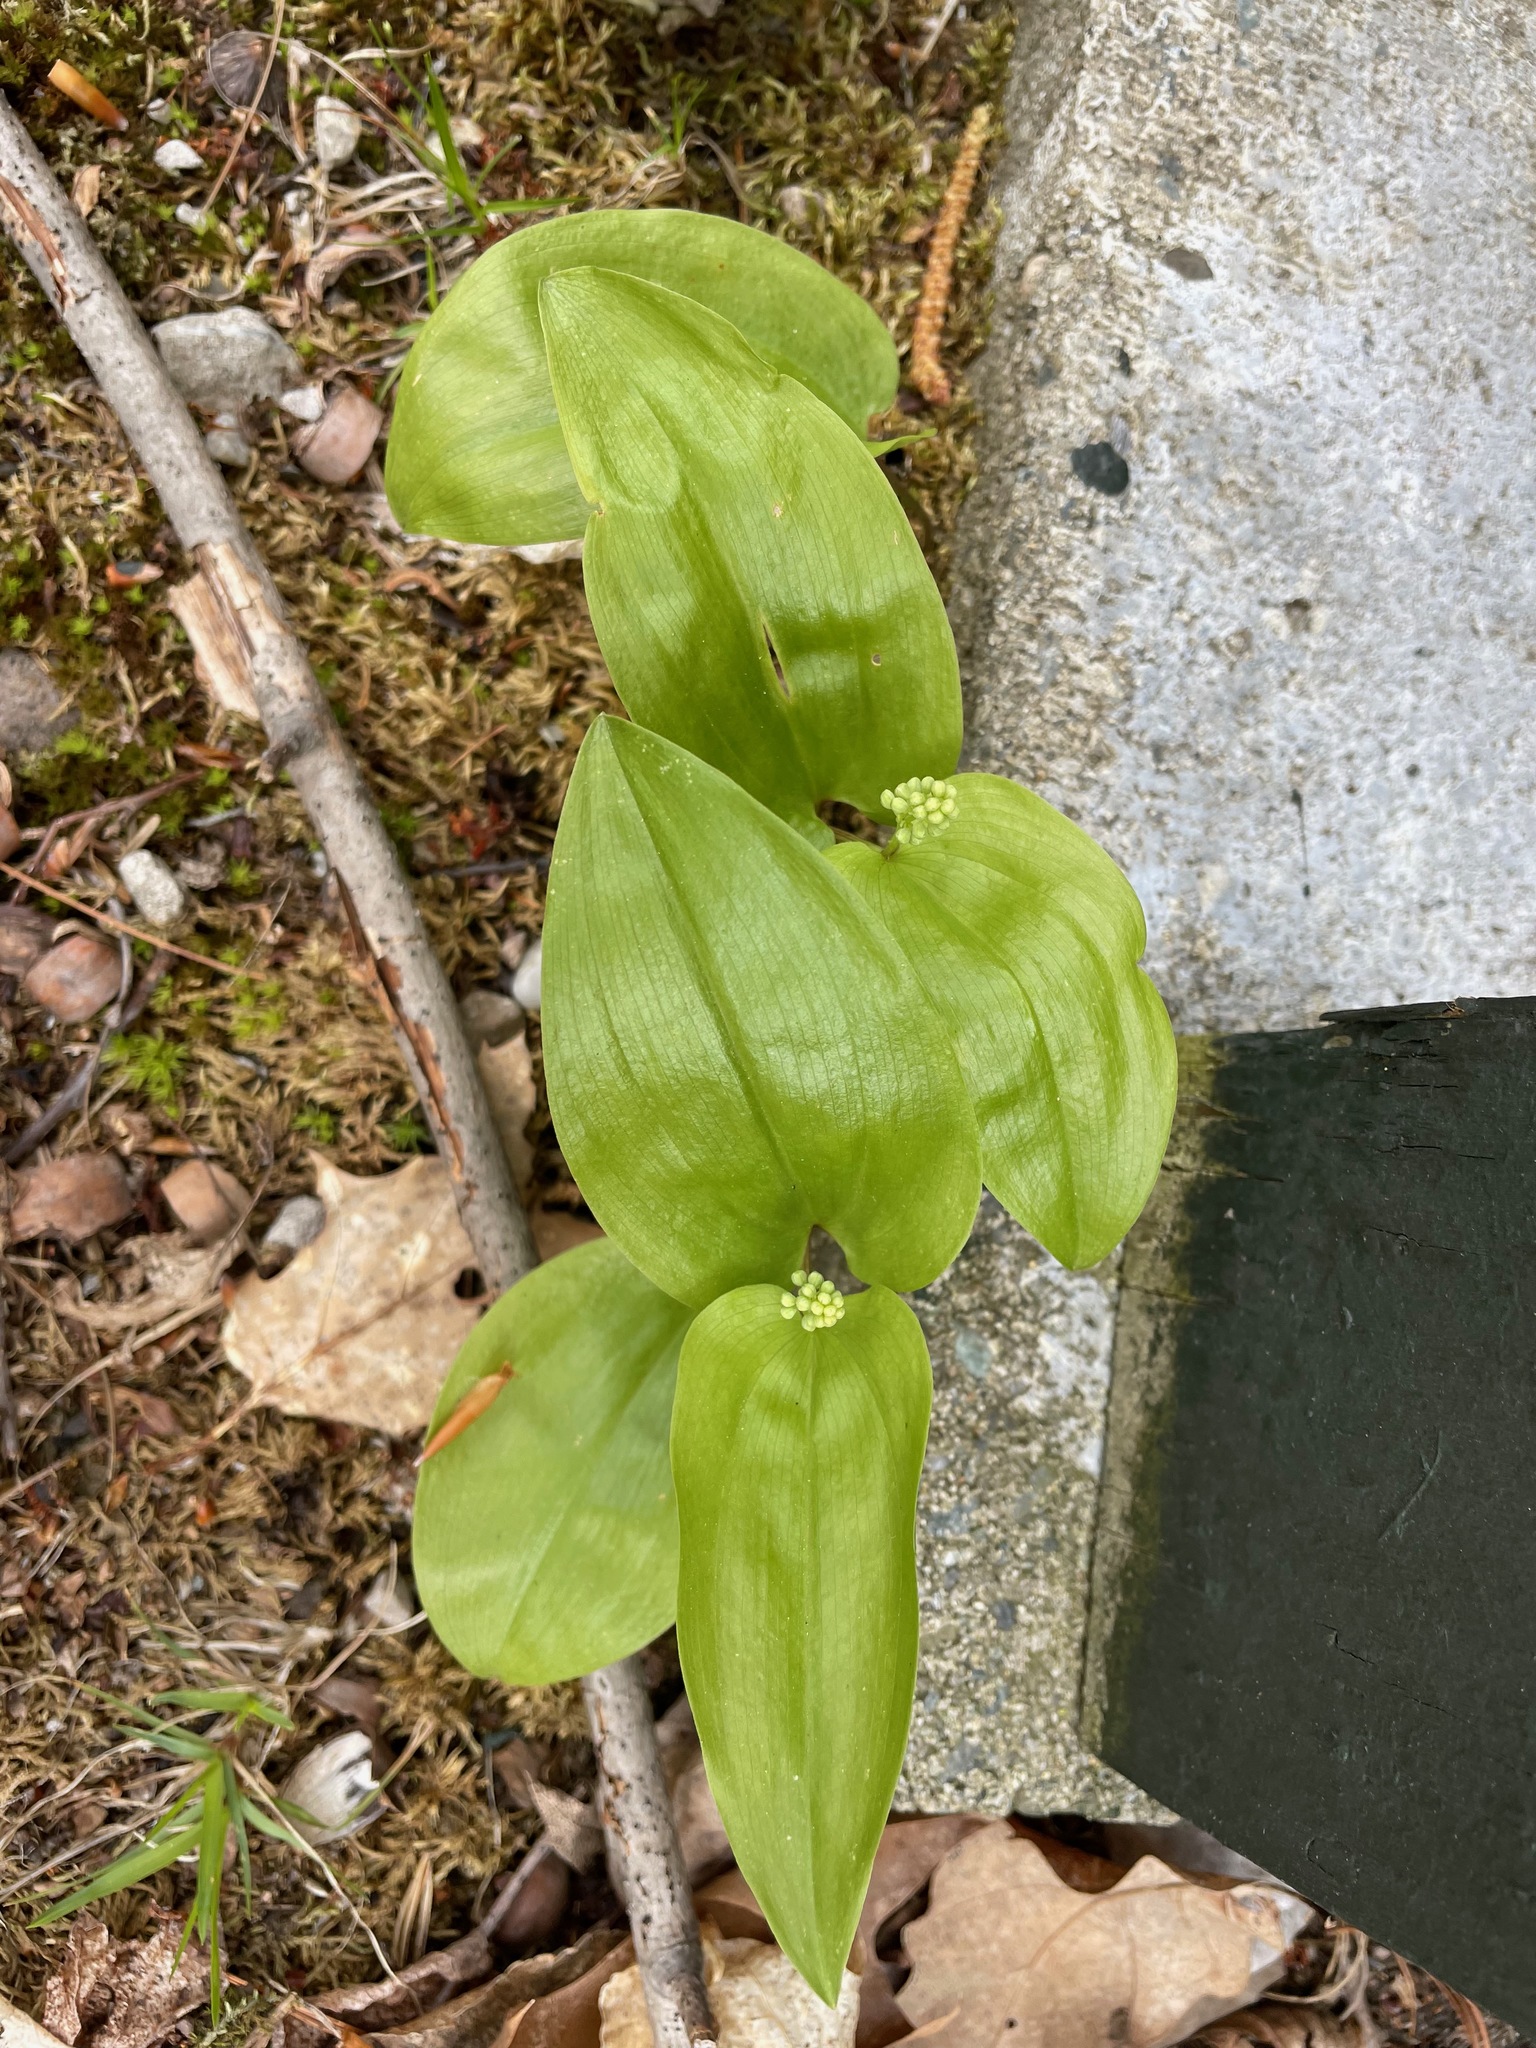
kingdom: Plantae
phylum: Tracheophyta
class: Liliopsida
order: Asparagales
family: Asparagaceae
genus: Maianthemum
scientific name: Maianthemum canadense
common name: False lily-of-the-valley
